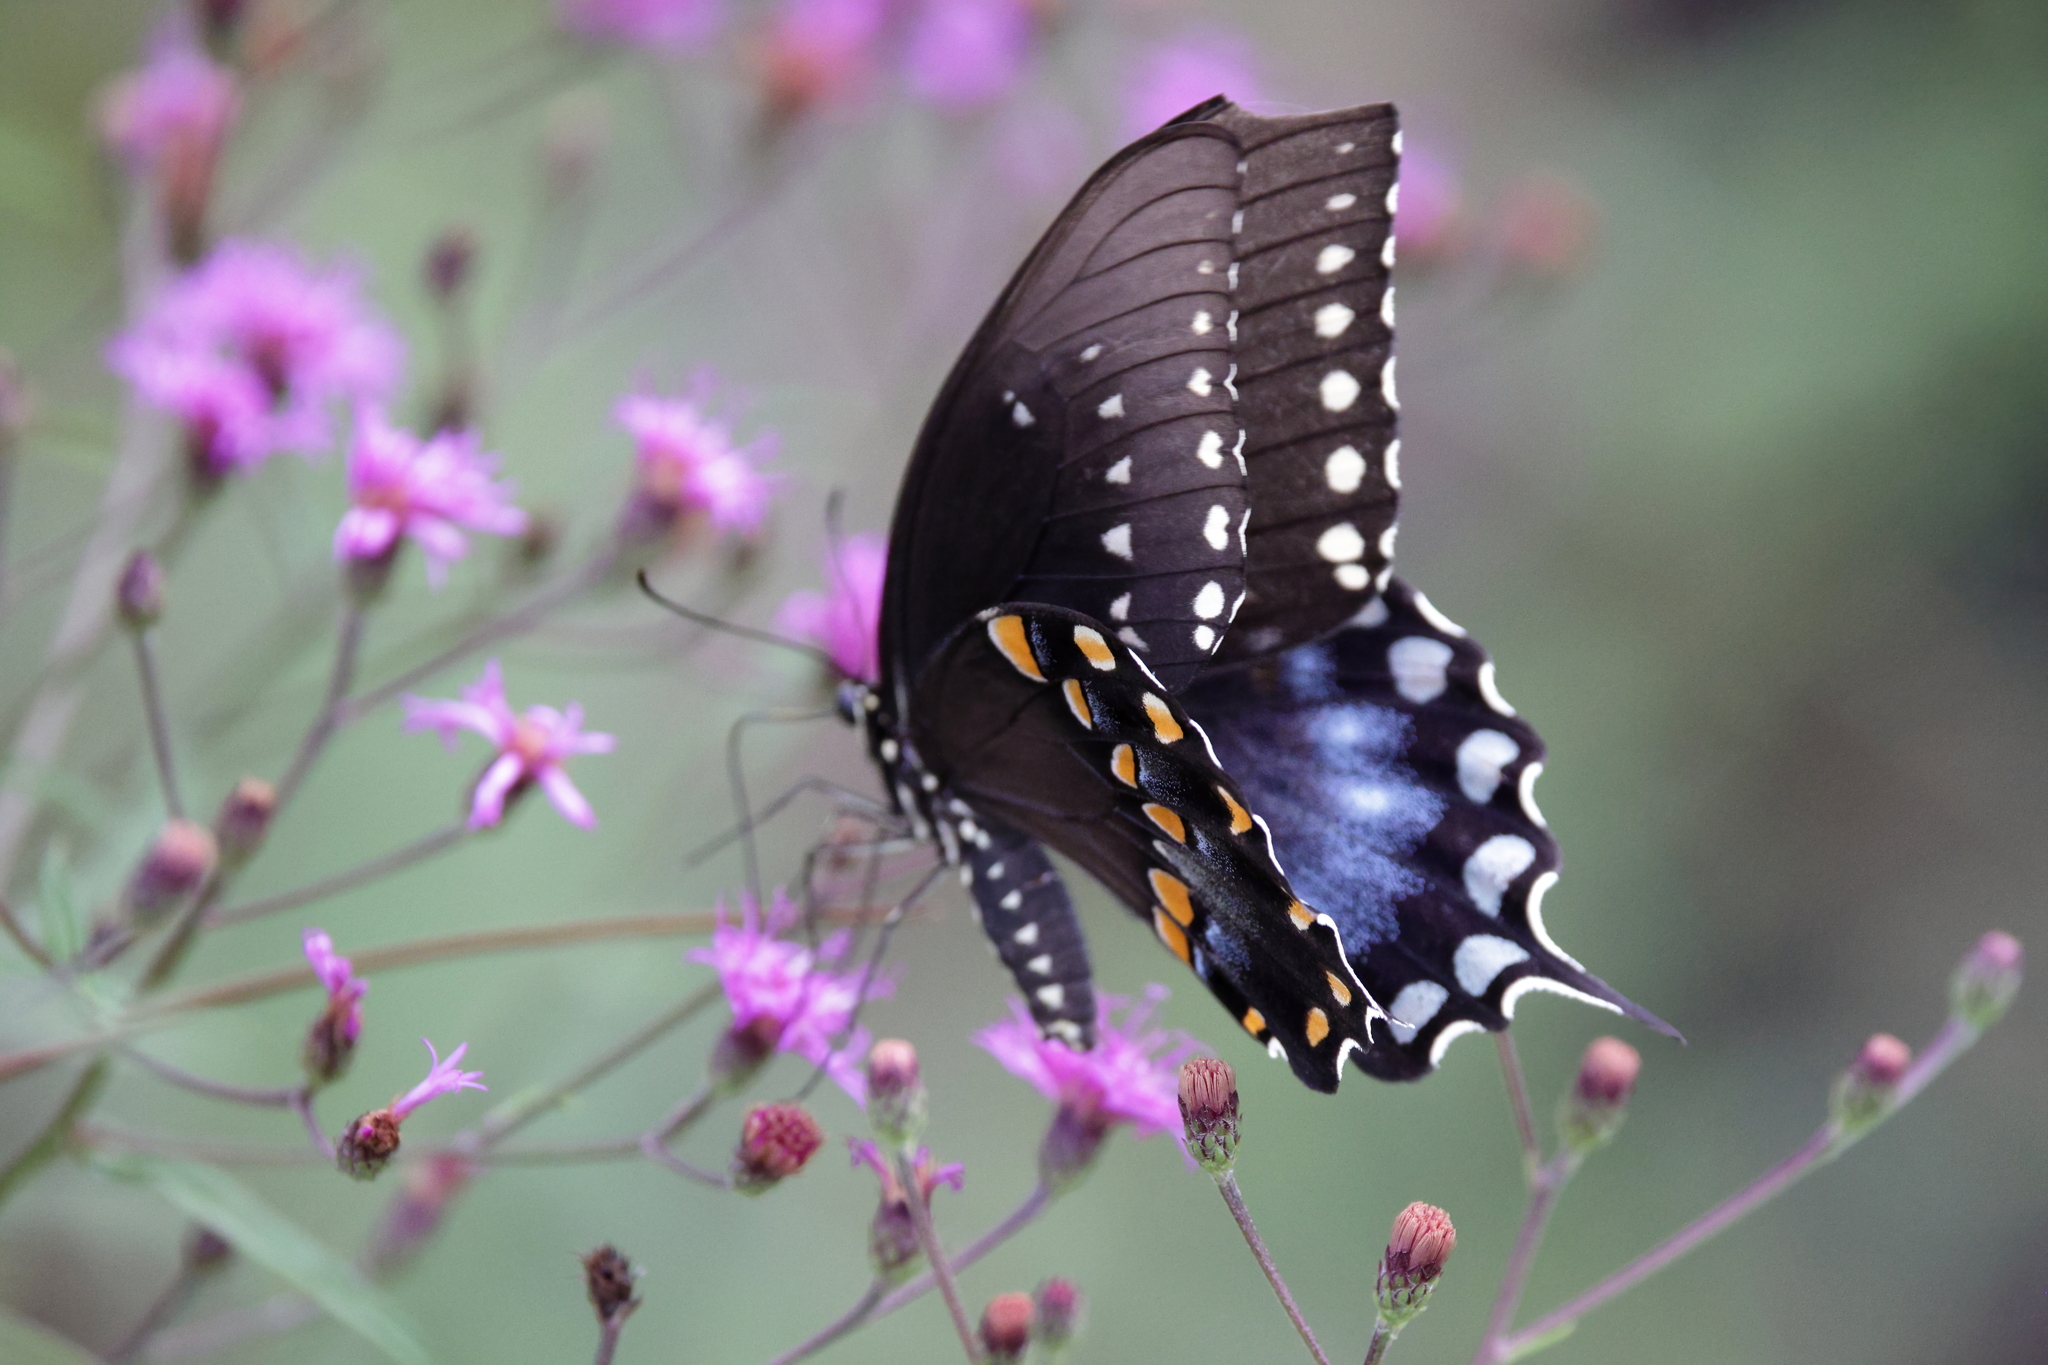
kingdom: Animalia
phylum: Arthropoda
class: Insecta
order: Lepidoptera
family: Papilionidae
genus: Papilio
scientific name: Papilio troilus
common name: Spicebush swallowtail
